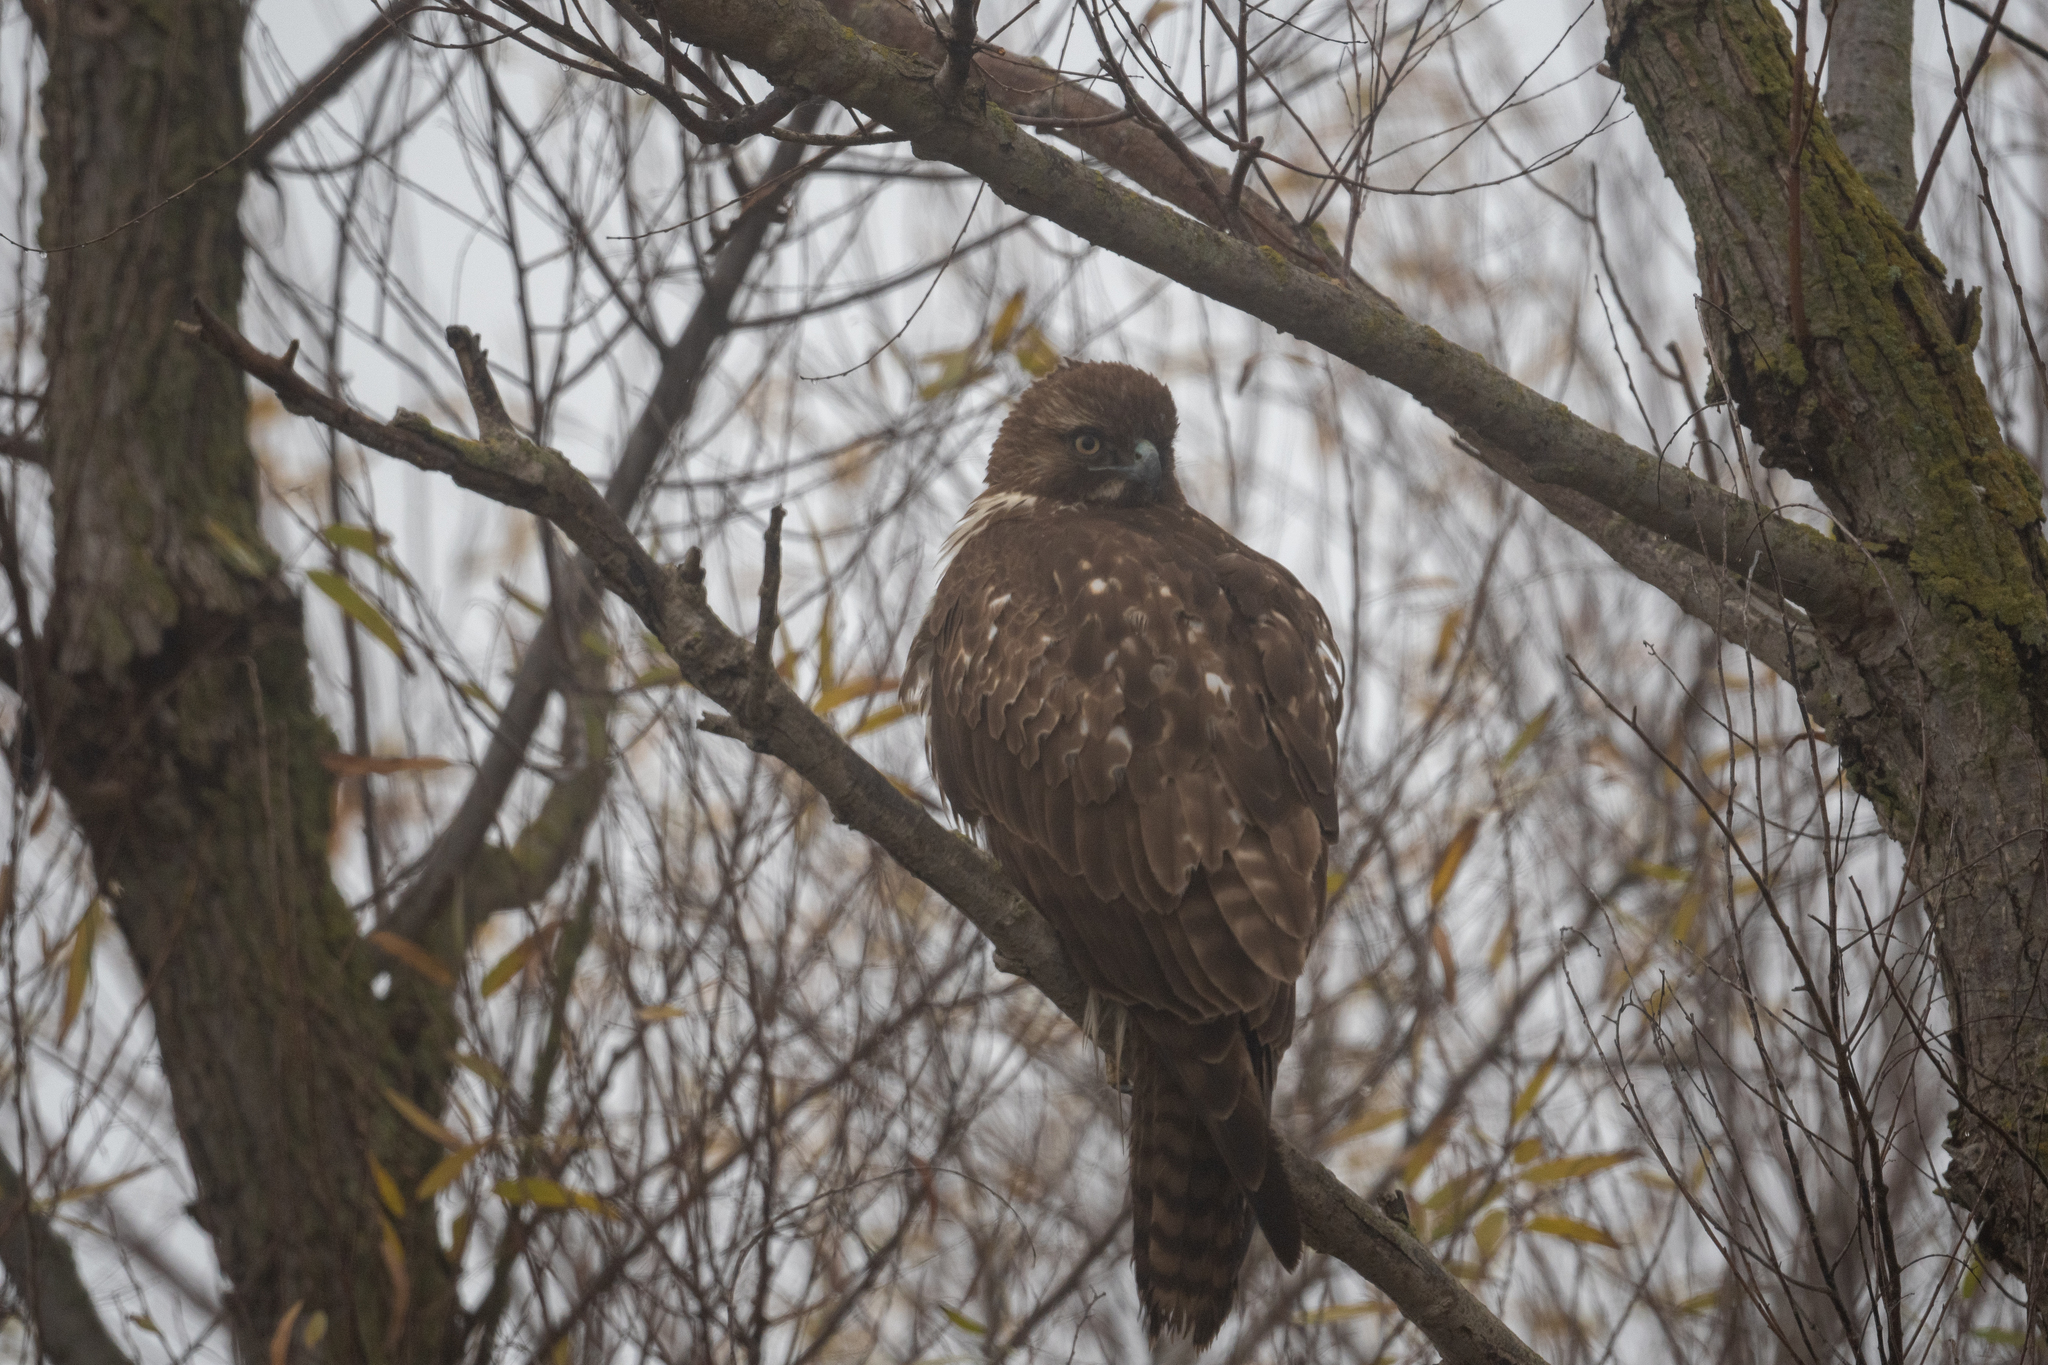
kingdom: Animalia
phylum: Chordata
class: Aves
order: Accipitriformes
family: Accipitridae
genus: Buteo
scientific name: Buteo jamaicensis
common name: Red-tailed hawk
